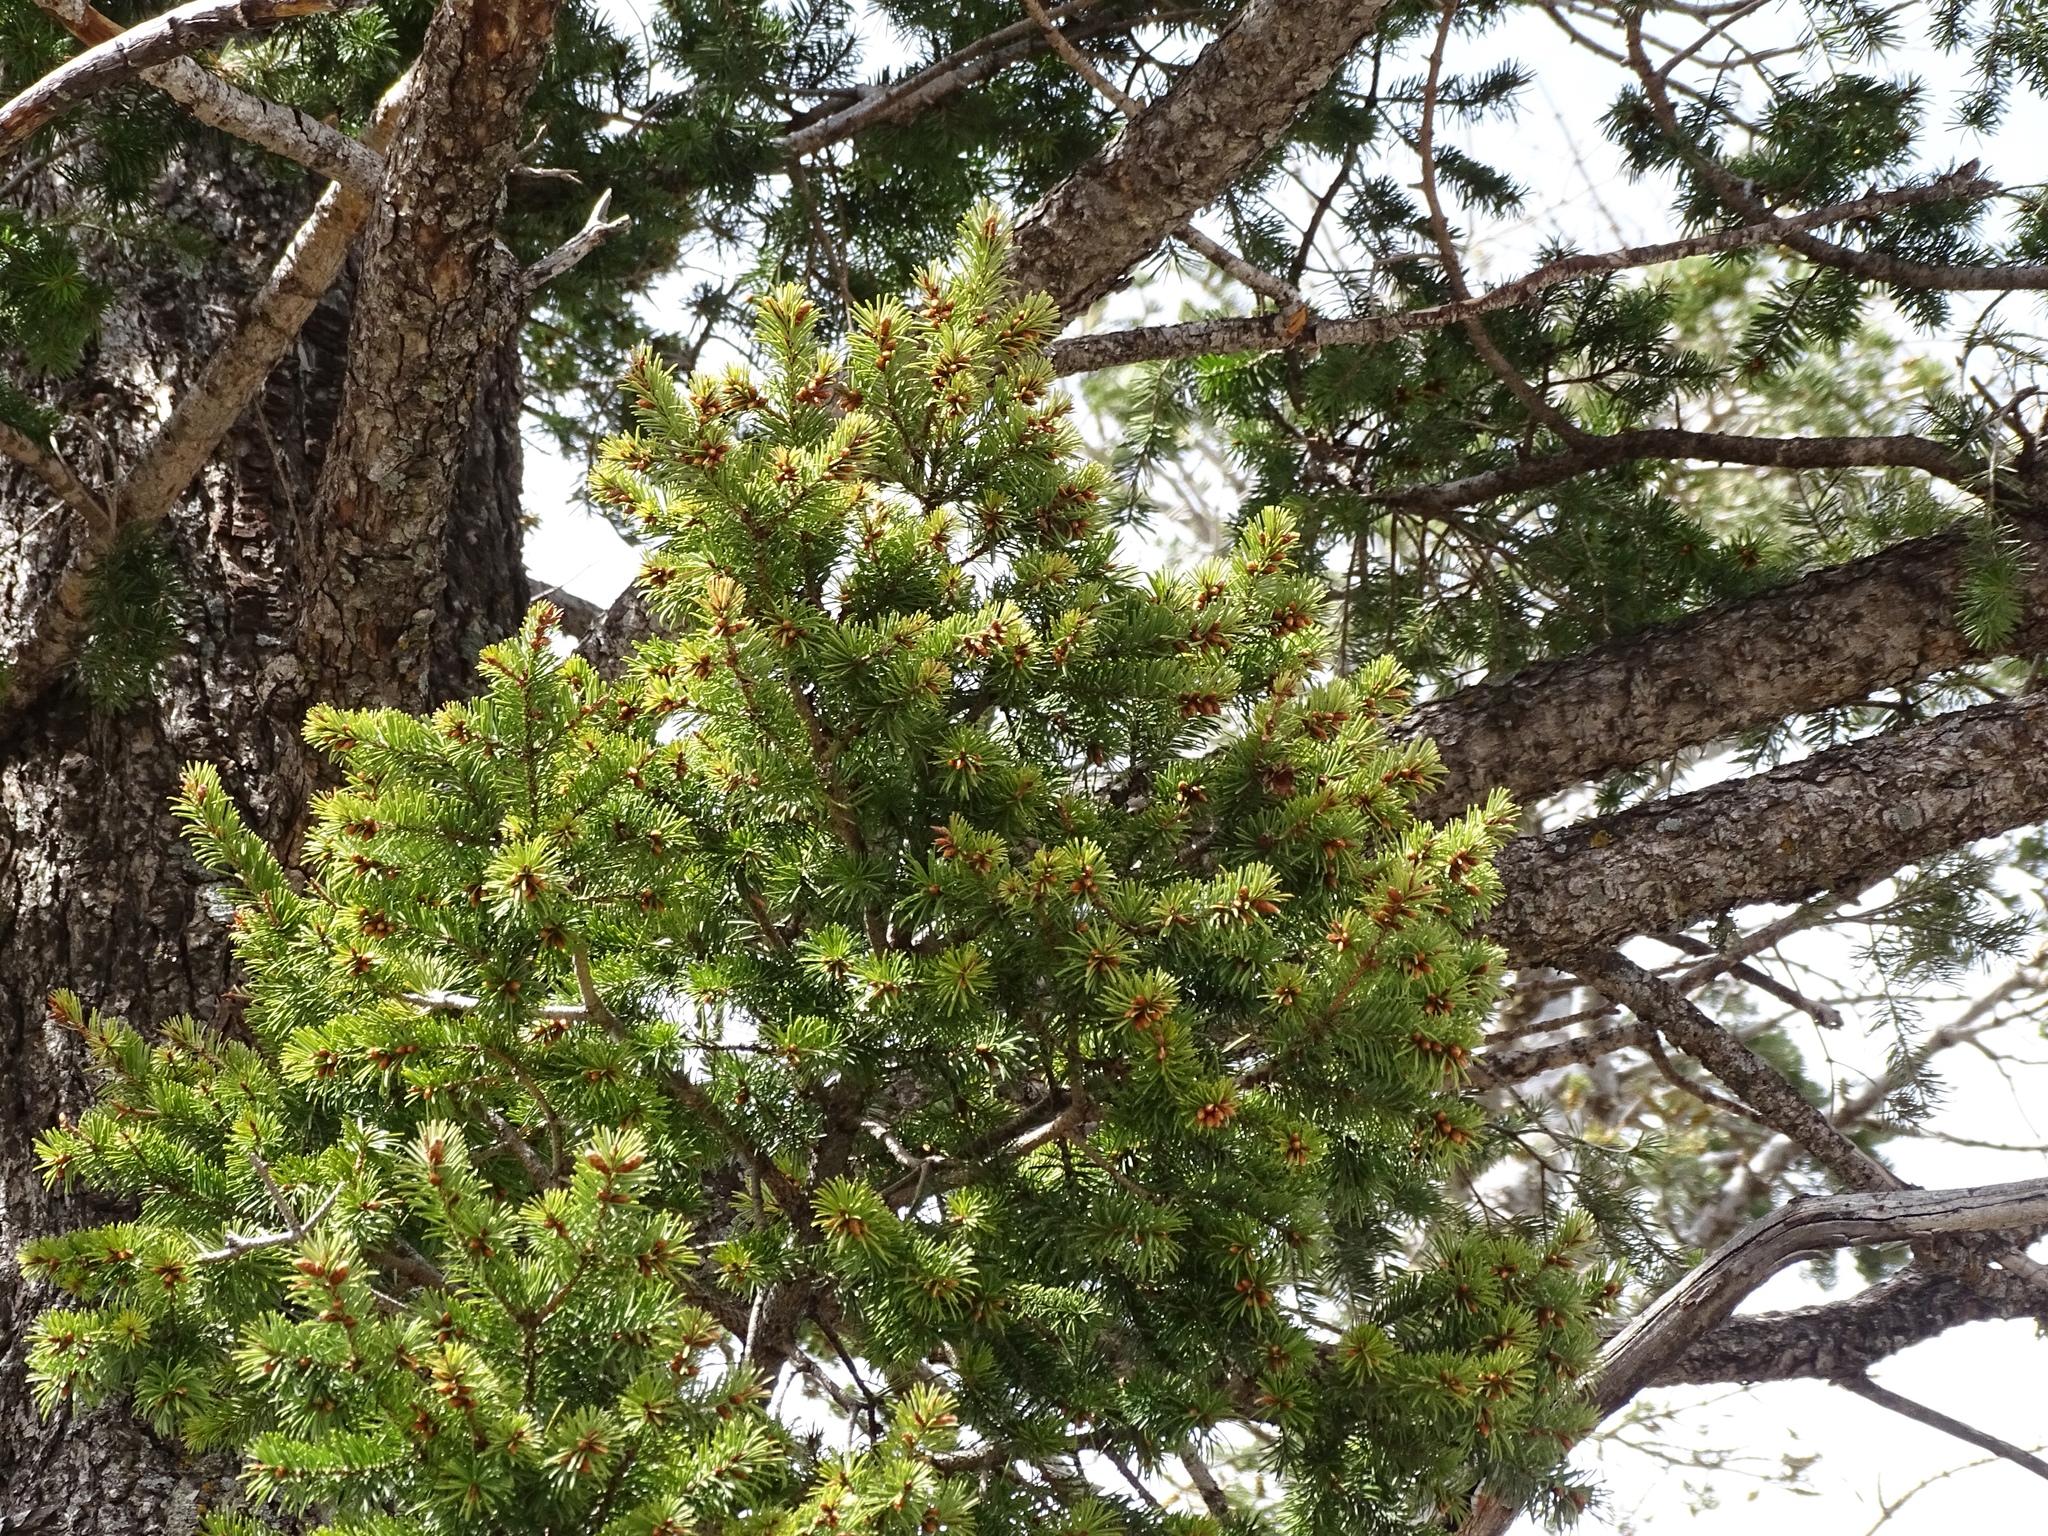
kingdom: Plantae
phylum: Tracheophyta
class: Pinopsida
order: Pinales
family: Pinaceae
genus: Pseudotsuga
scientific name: Pseudotsuga menziesii
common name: Douglas fir
